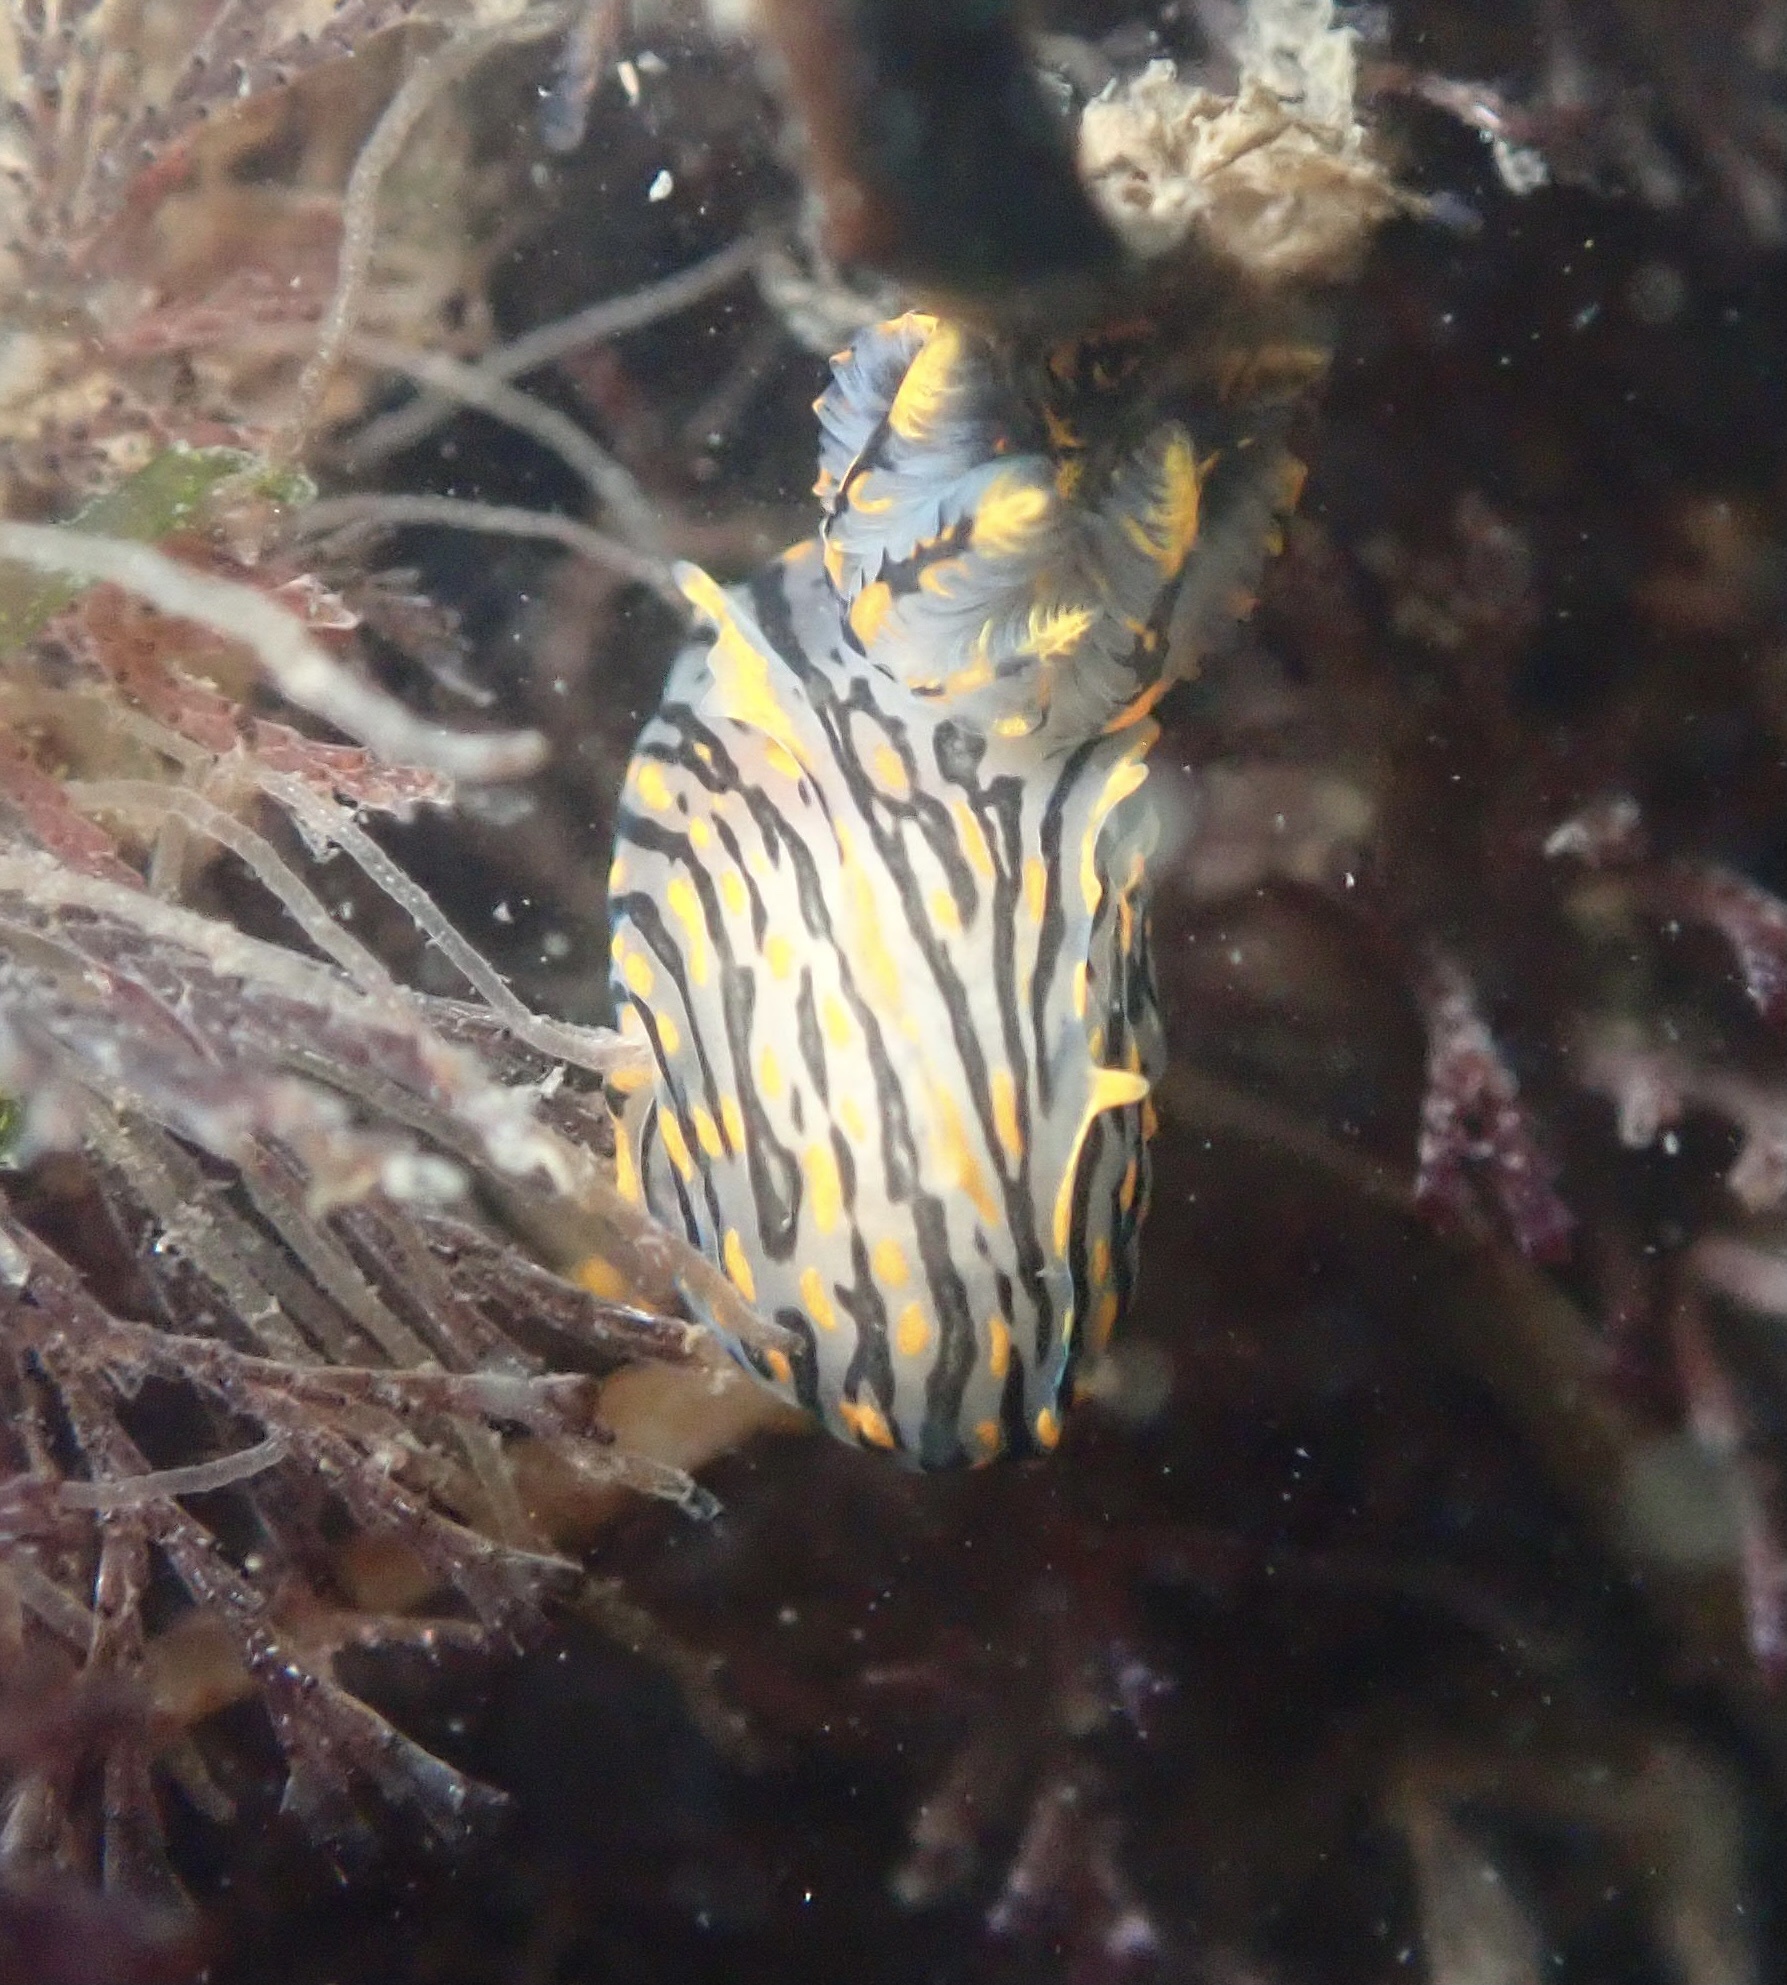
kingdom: Animalia
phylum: Mollusca
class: Gastropoda
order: Nudibranchia
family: Polyceridae
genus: Polycera
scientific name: Polycera atra
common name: Orange-spike polycera
